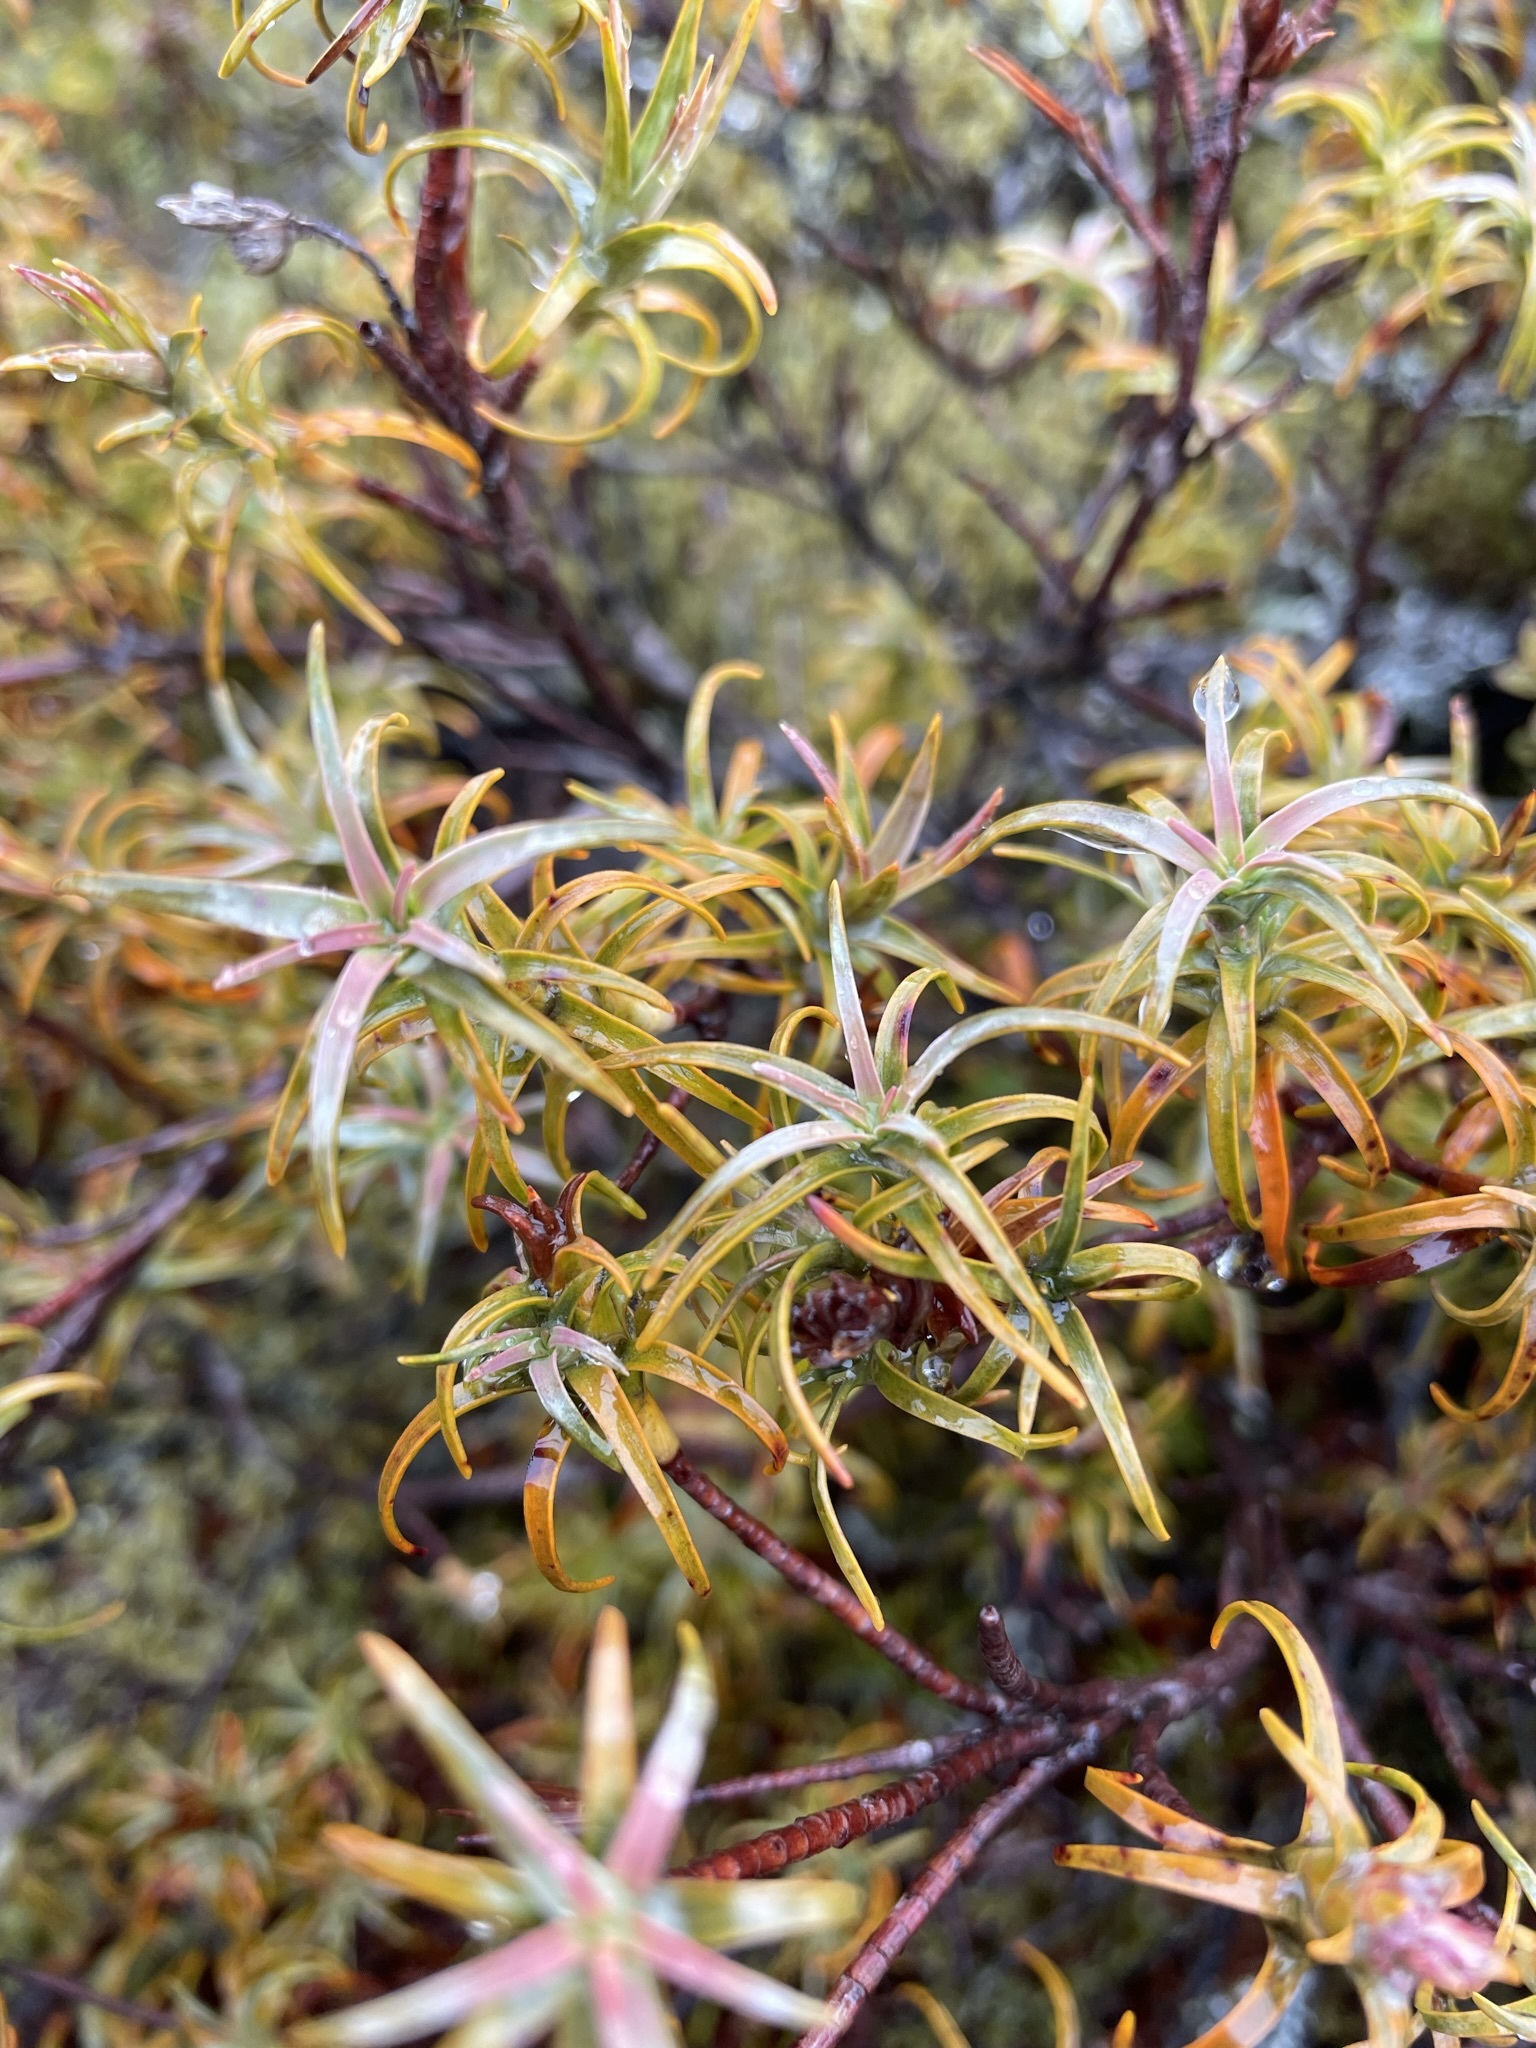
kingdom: Plantae
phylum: Tracheophyta
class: Magnoliopsida
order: Ericales
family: Ericaceae
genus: Dracophyllum
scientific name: Dracophyllum recurvum
